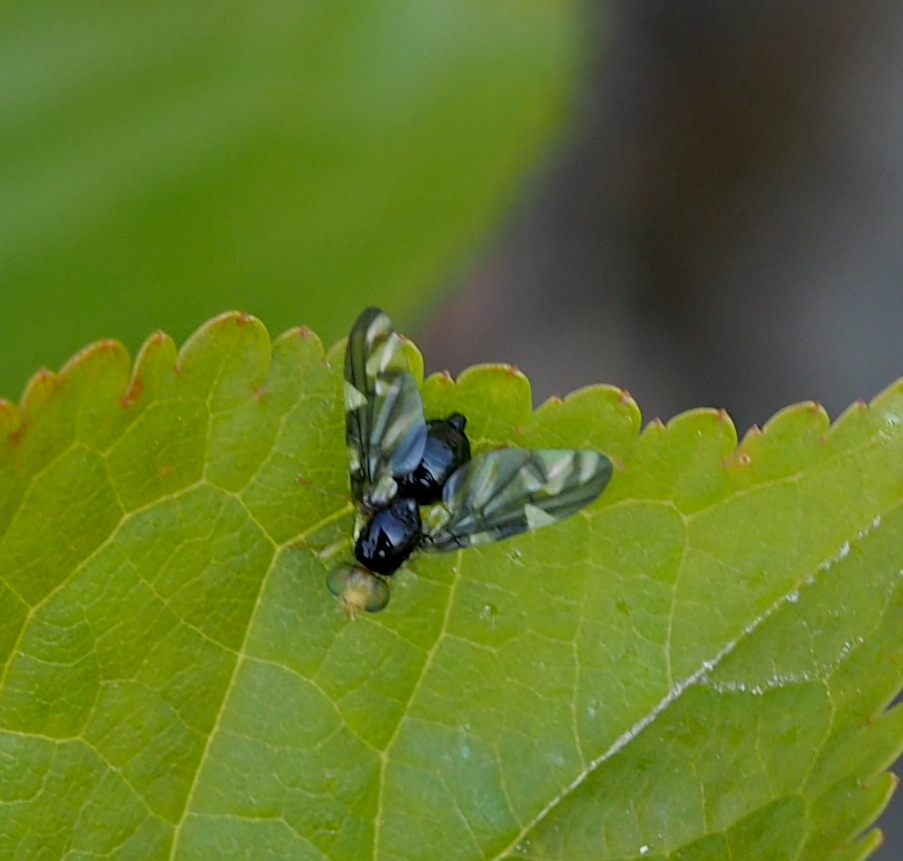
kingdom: Animalia
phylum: Arthropoda
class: Insecta
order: Diptera
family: Tephritidae
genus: Euleia
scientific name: Euleia heraclei
